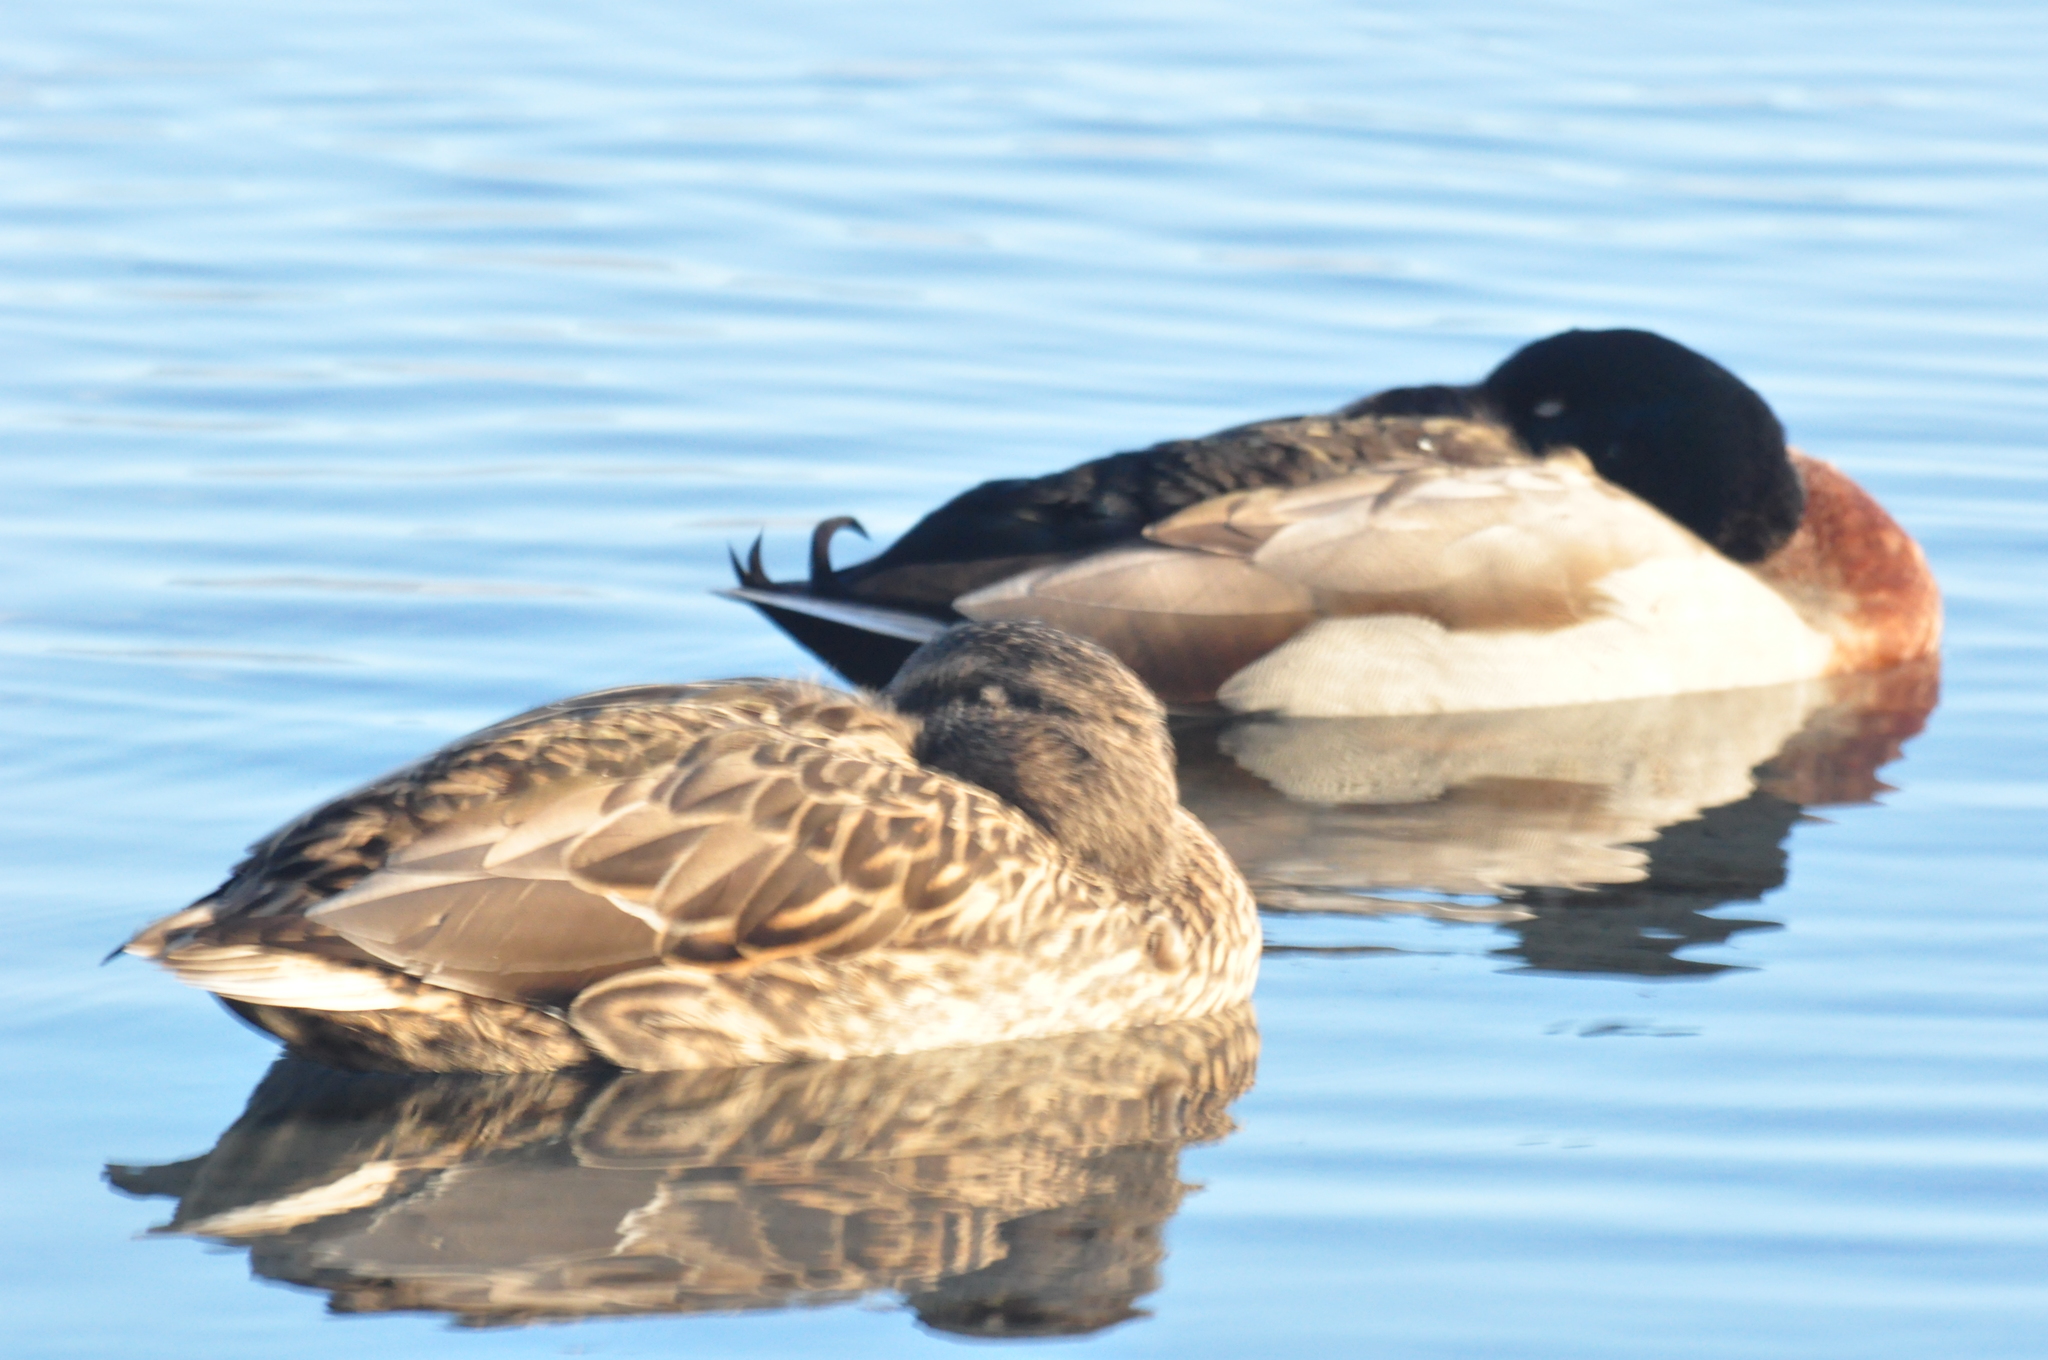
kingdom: Animalia
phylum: Chordata
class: Aves
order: Anseriformes
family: Anatidae
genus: Anas
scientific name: Anas platyrhynchos
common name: Mallard
